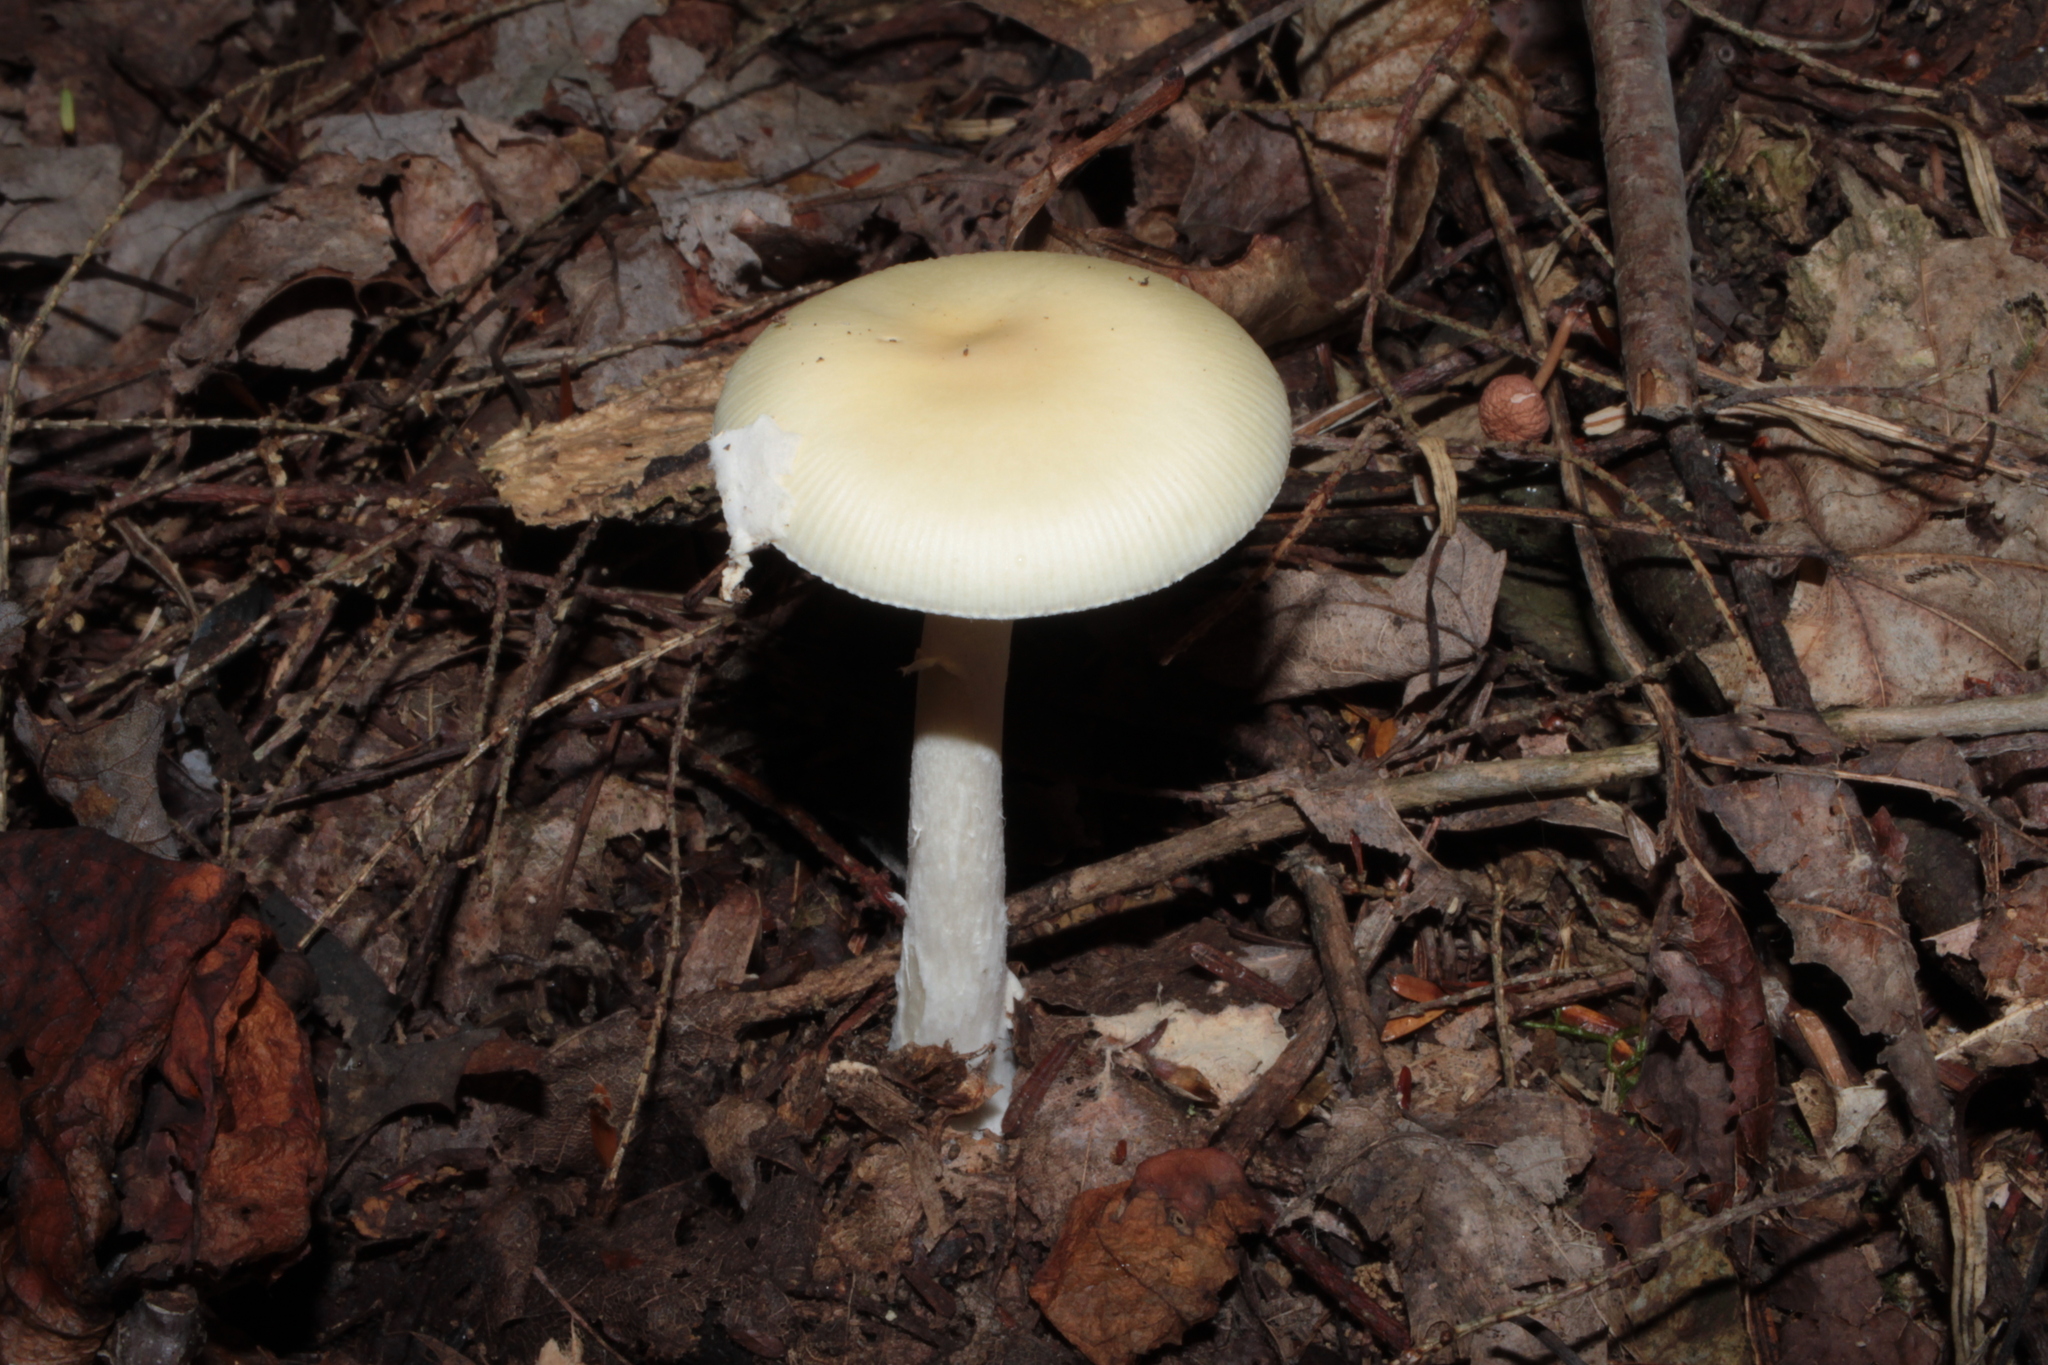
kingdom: Fungi
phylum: Basidiomycota
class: Agaricomycetes
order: Agaricales
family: Amanitaceae
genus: Amanita
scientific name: Amanita stranella
